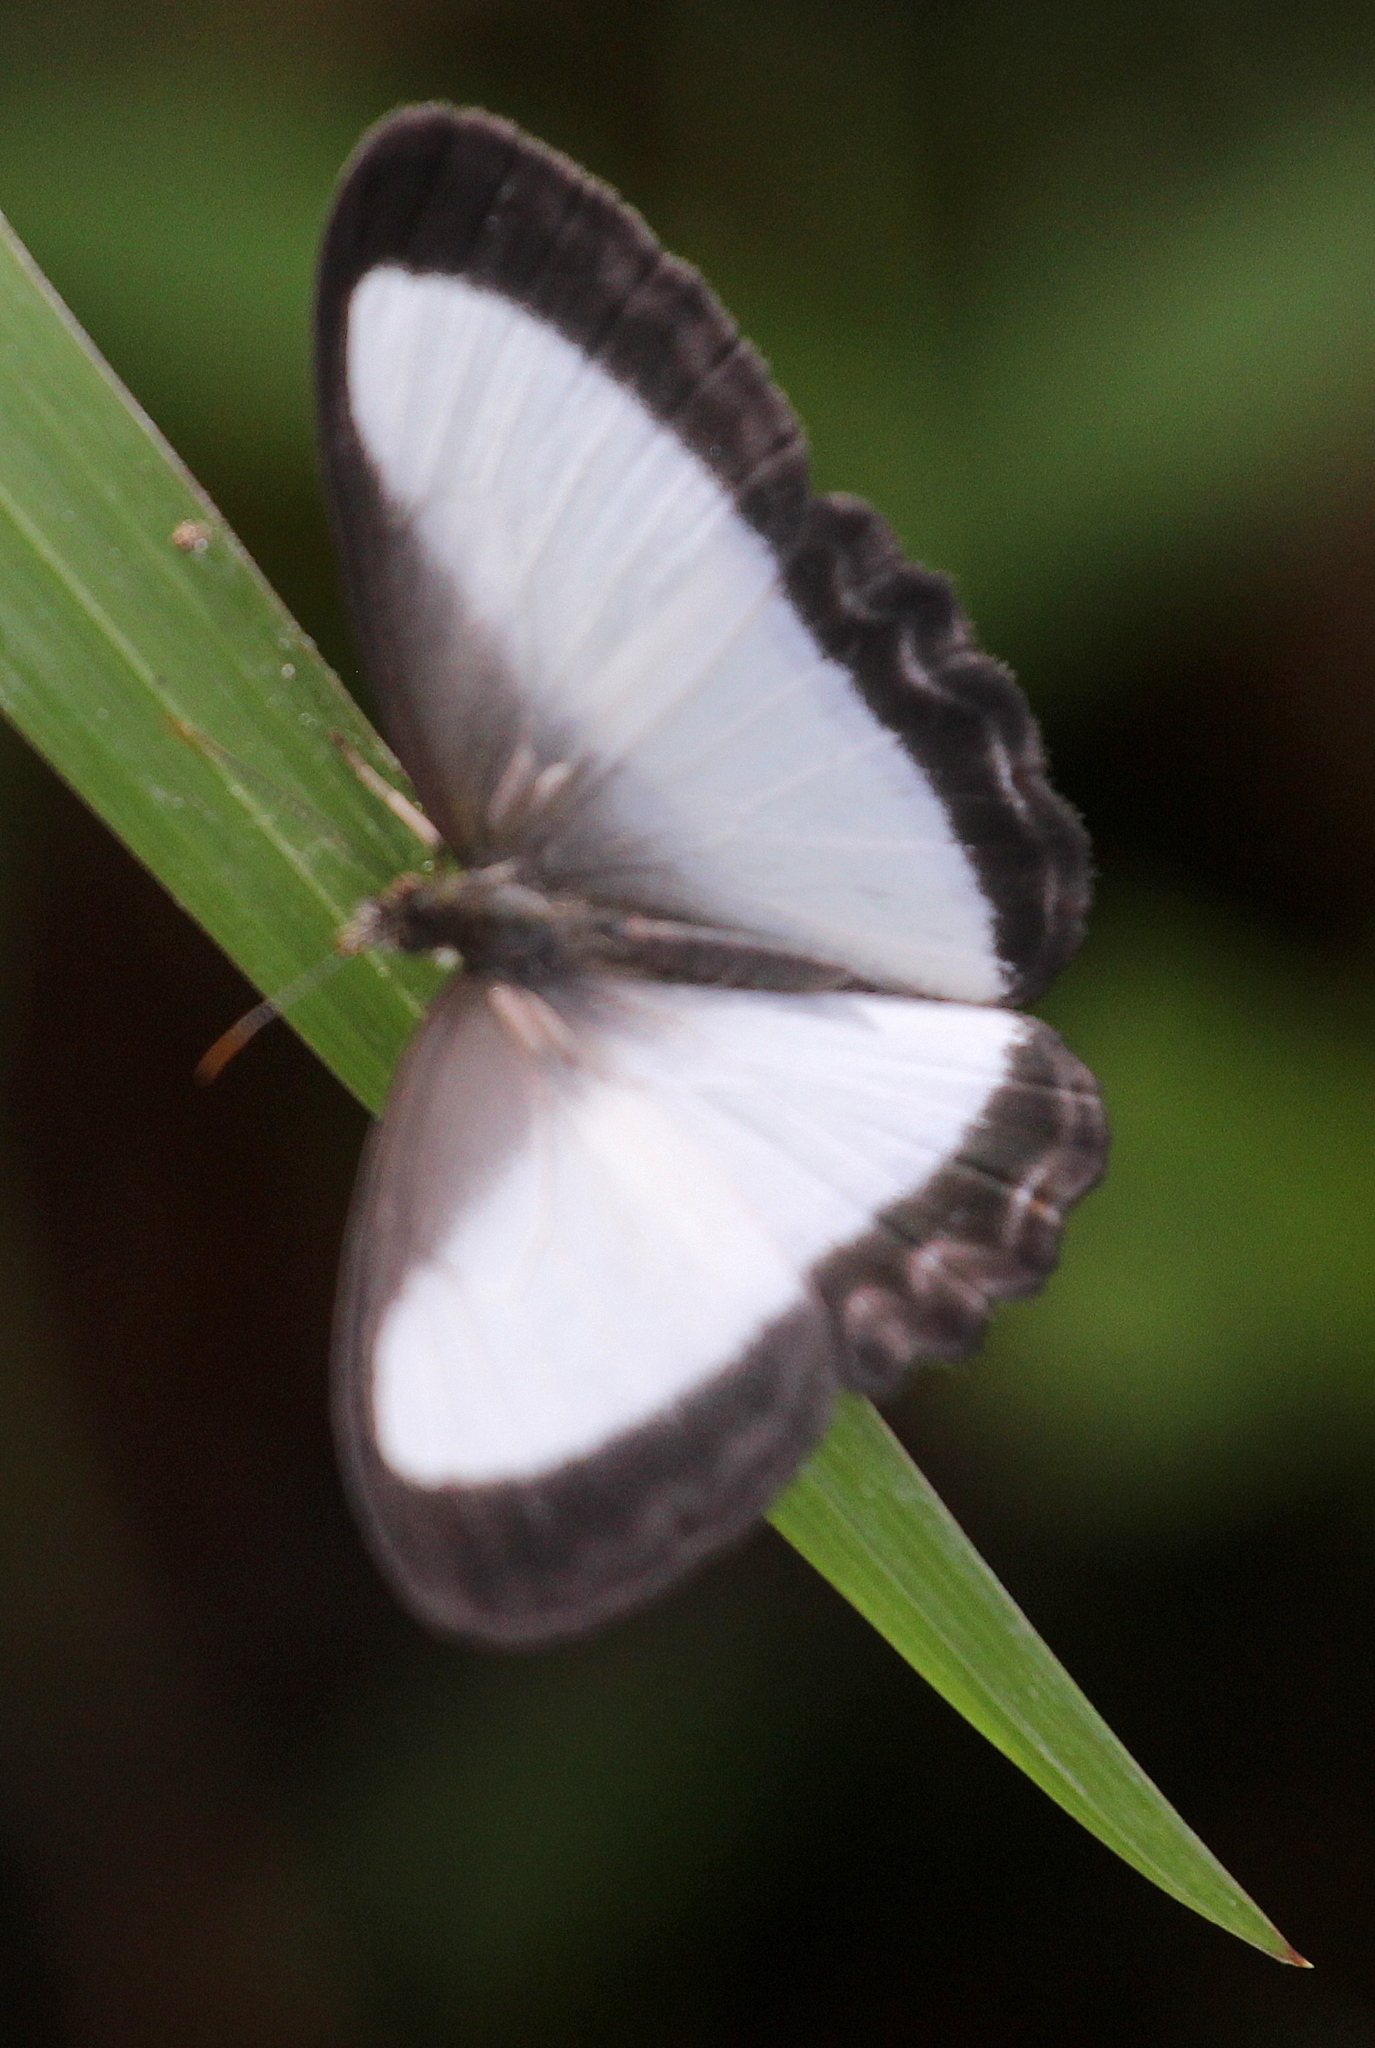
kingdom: Animalia
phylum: Arthropoda
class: Insecta
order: Lepidoptera
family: Nymphalidae
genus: Oressinoma
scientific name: Oressinoma typhla
